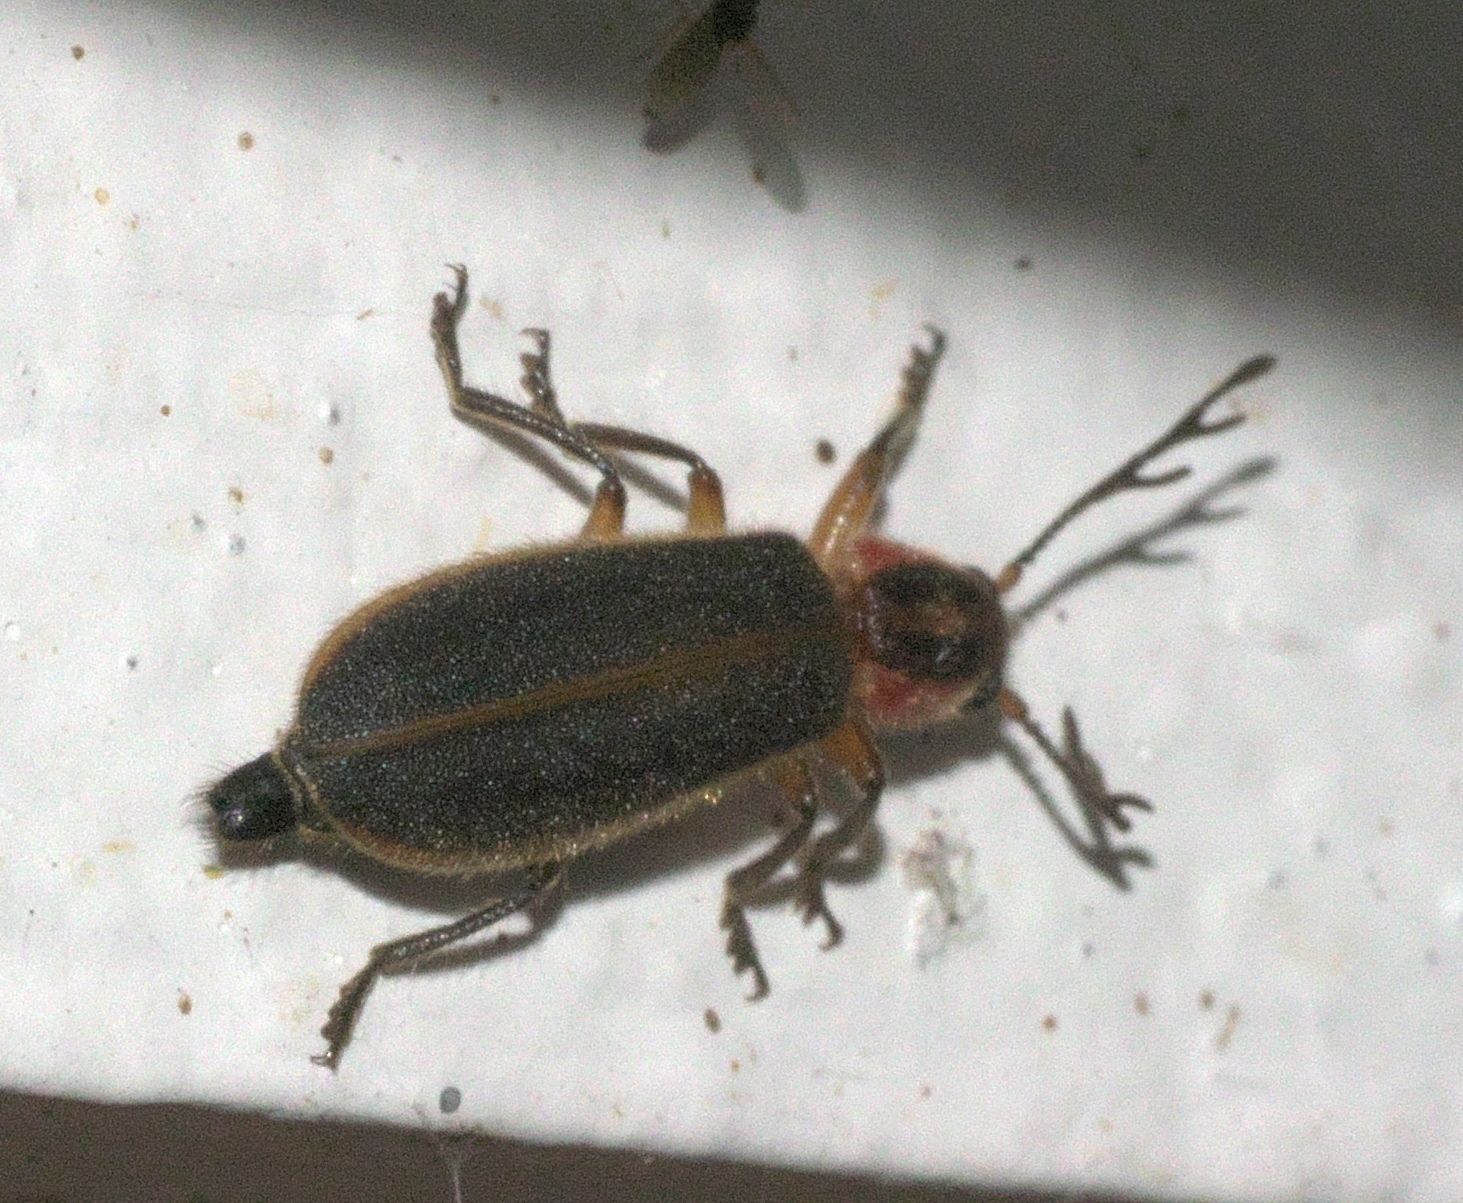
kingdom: Animalia
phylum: Arthropoda
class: Insecta
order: Coleoptera
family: Cleridae
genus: Chariessa
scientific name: Chariessa pilosa
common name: Pilose checkered beetle
